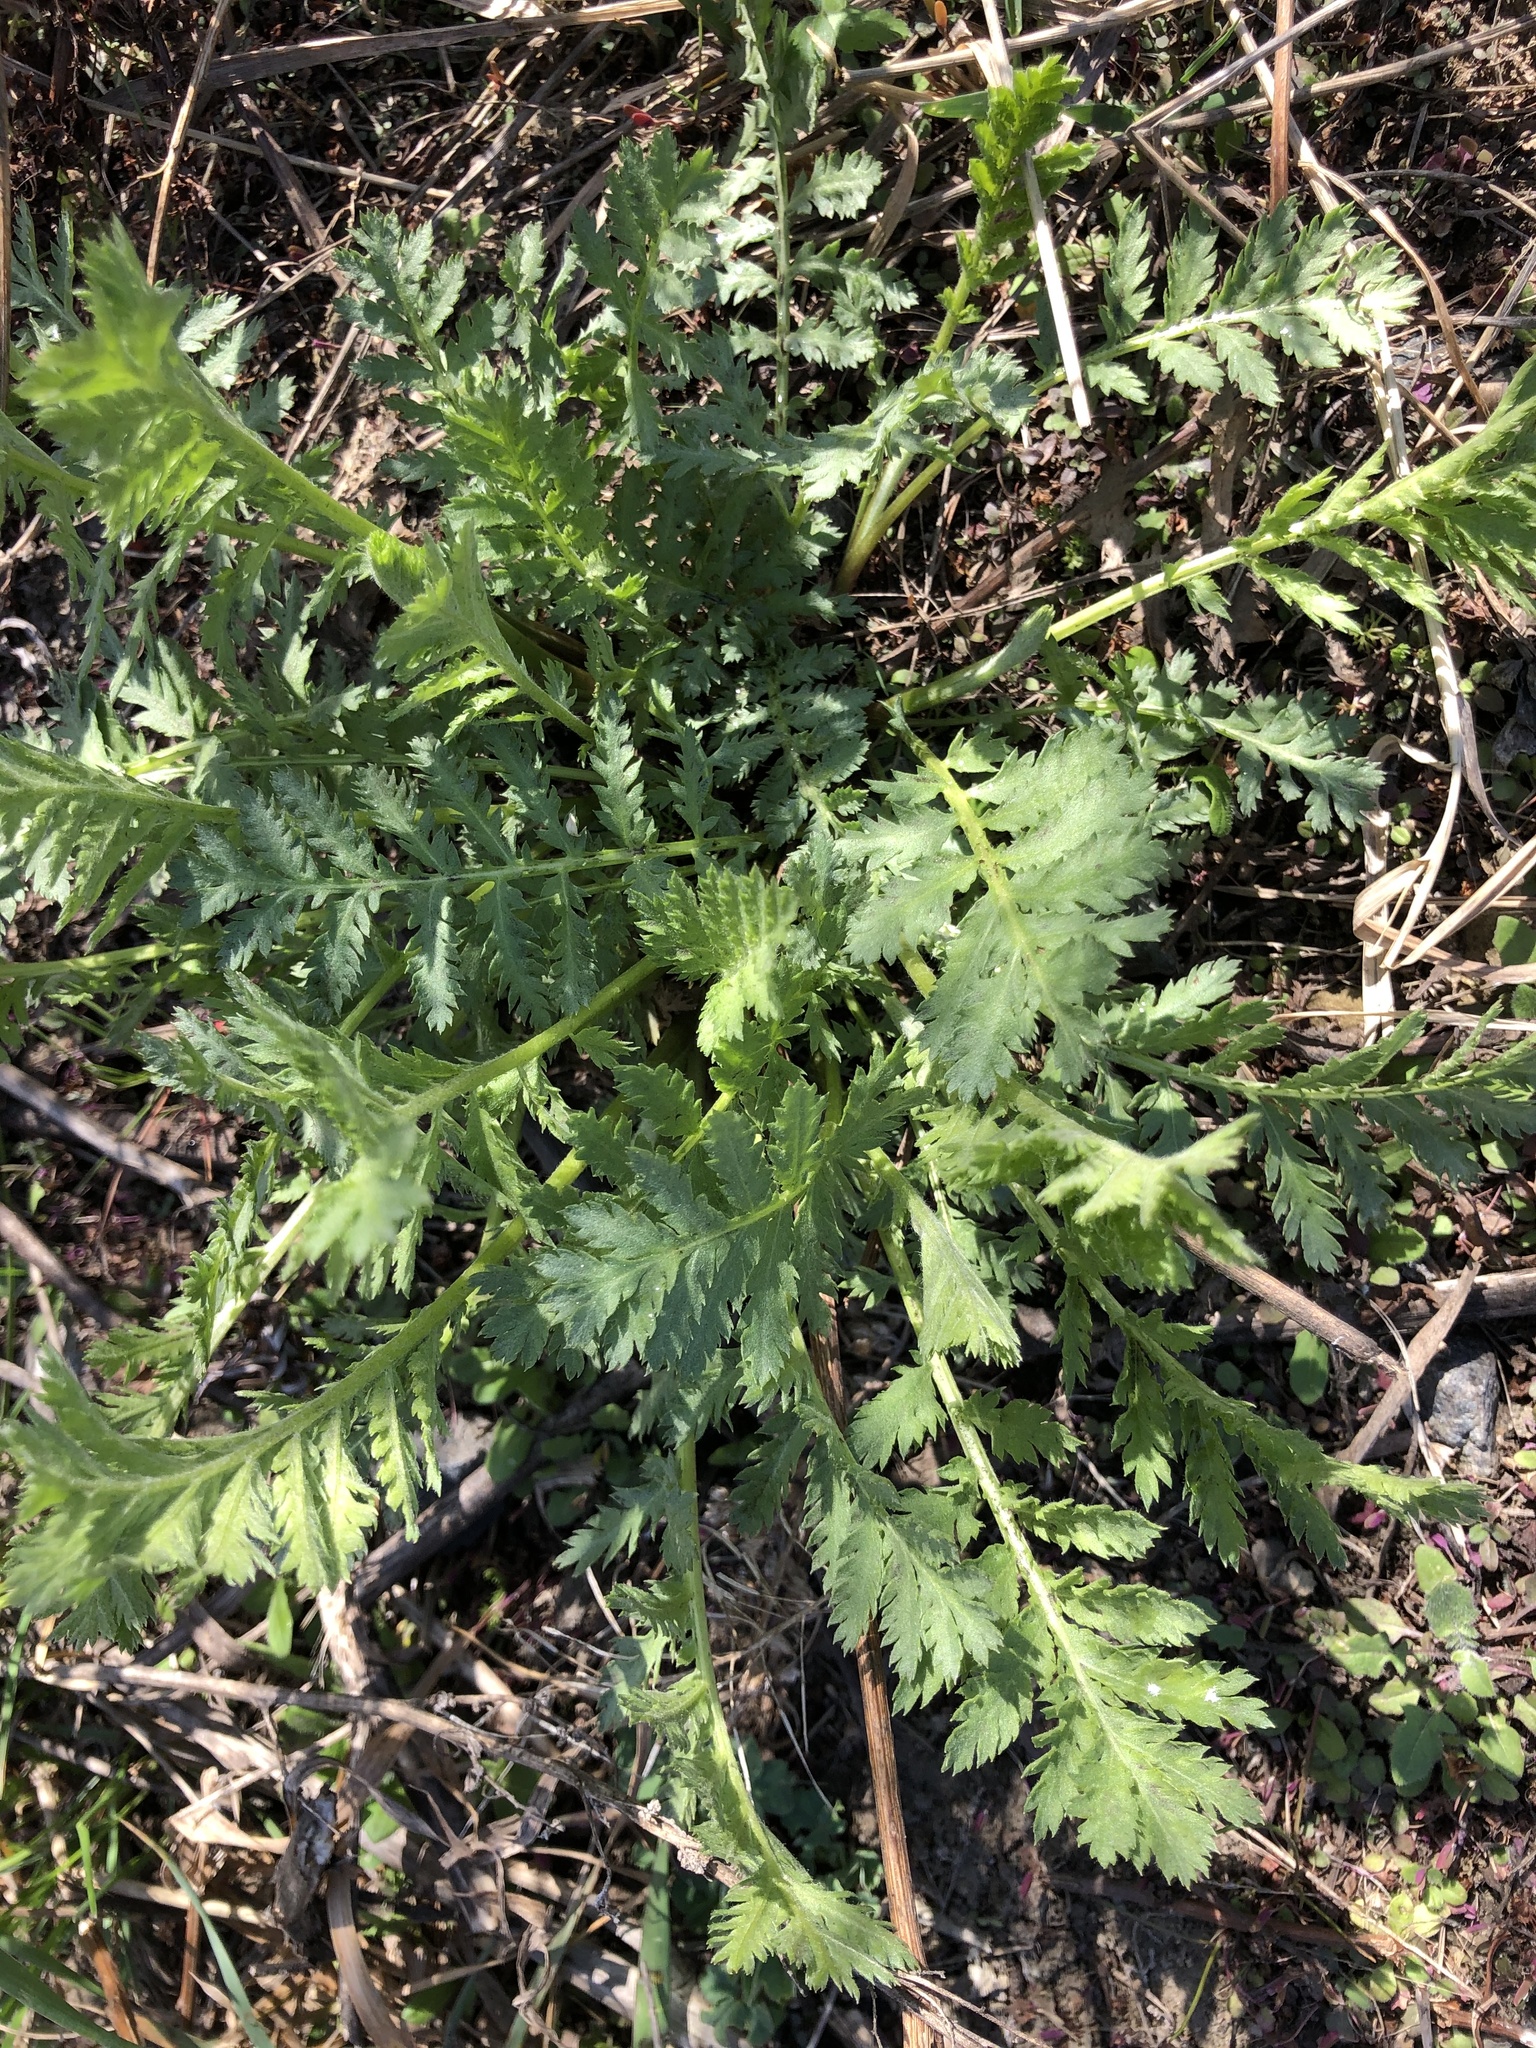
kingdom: Plantae
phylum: Tracheophyta
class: Magnoliopsida
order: Asterales
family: Asteraceae
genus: Tanacetum
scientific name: Tanacetum vulgare
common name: Common tansy
